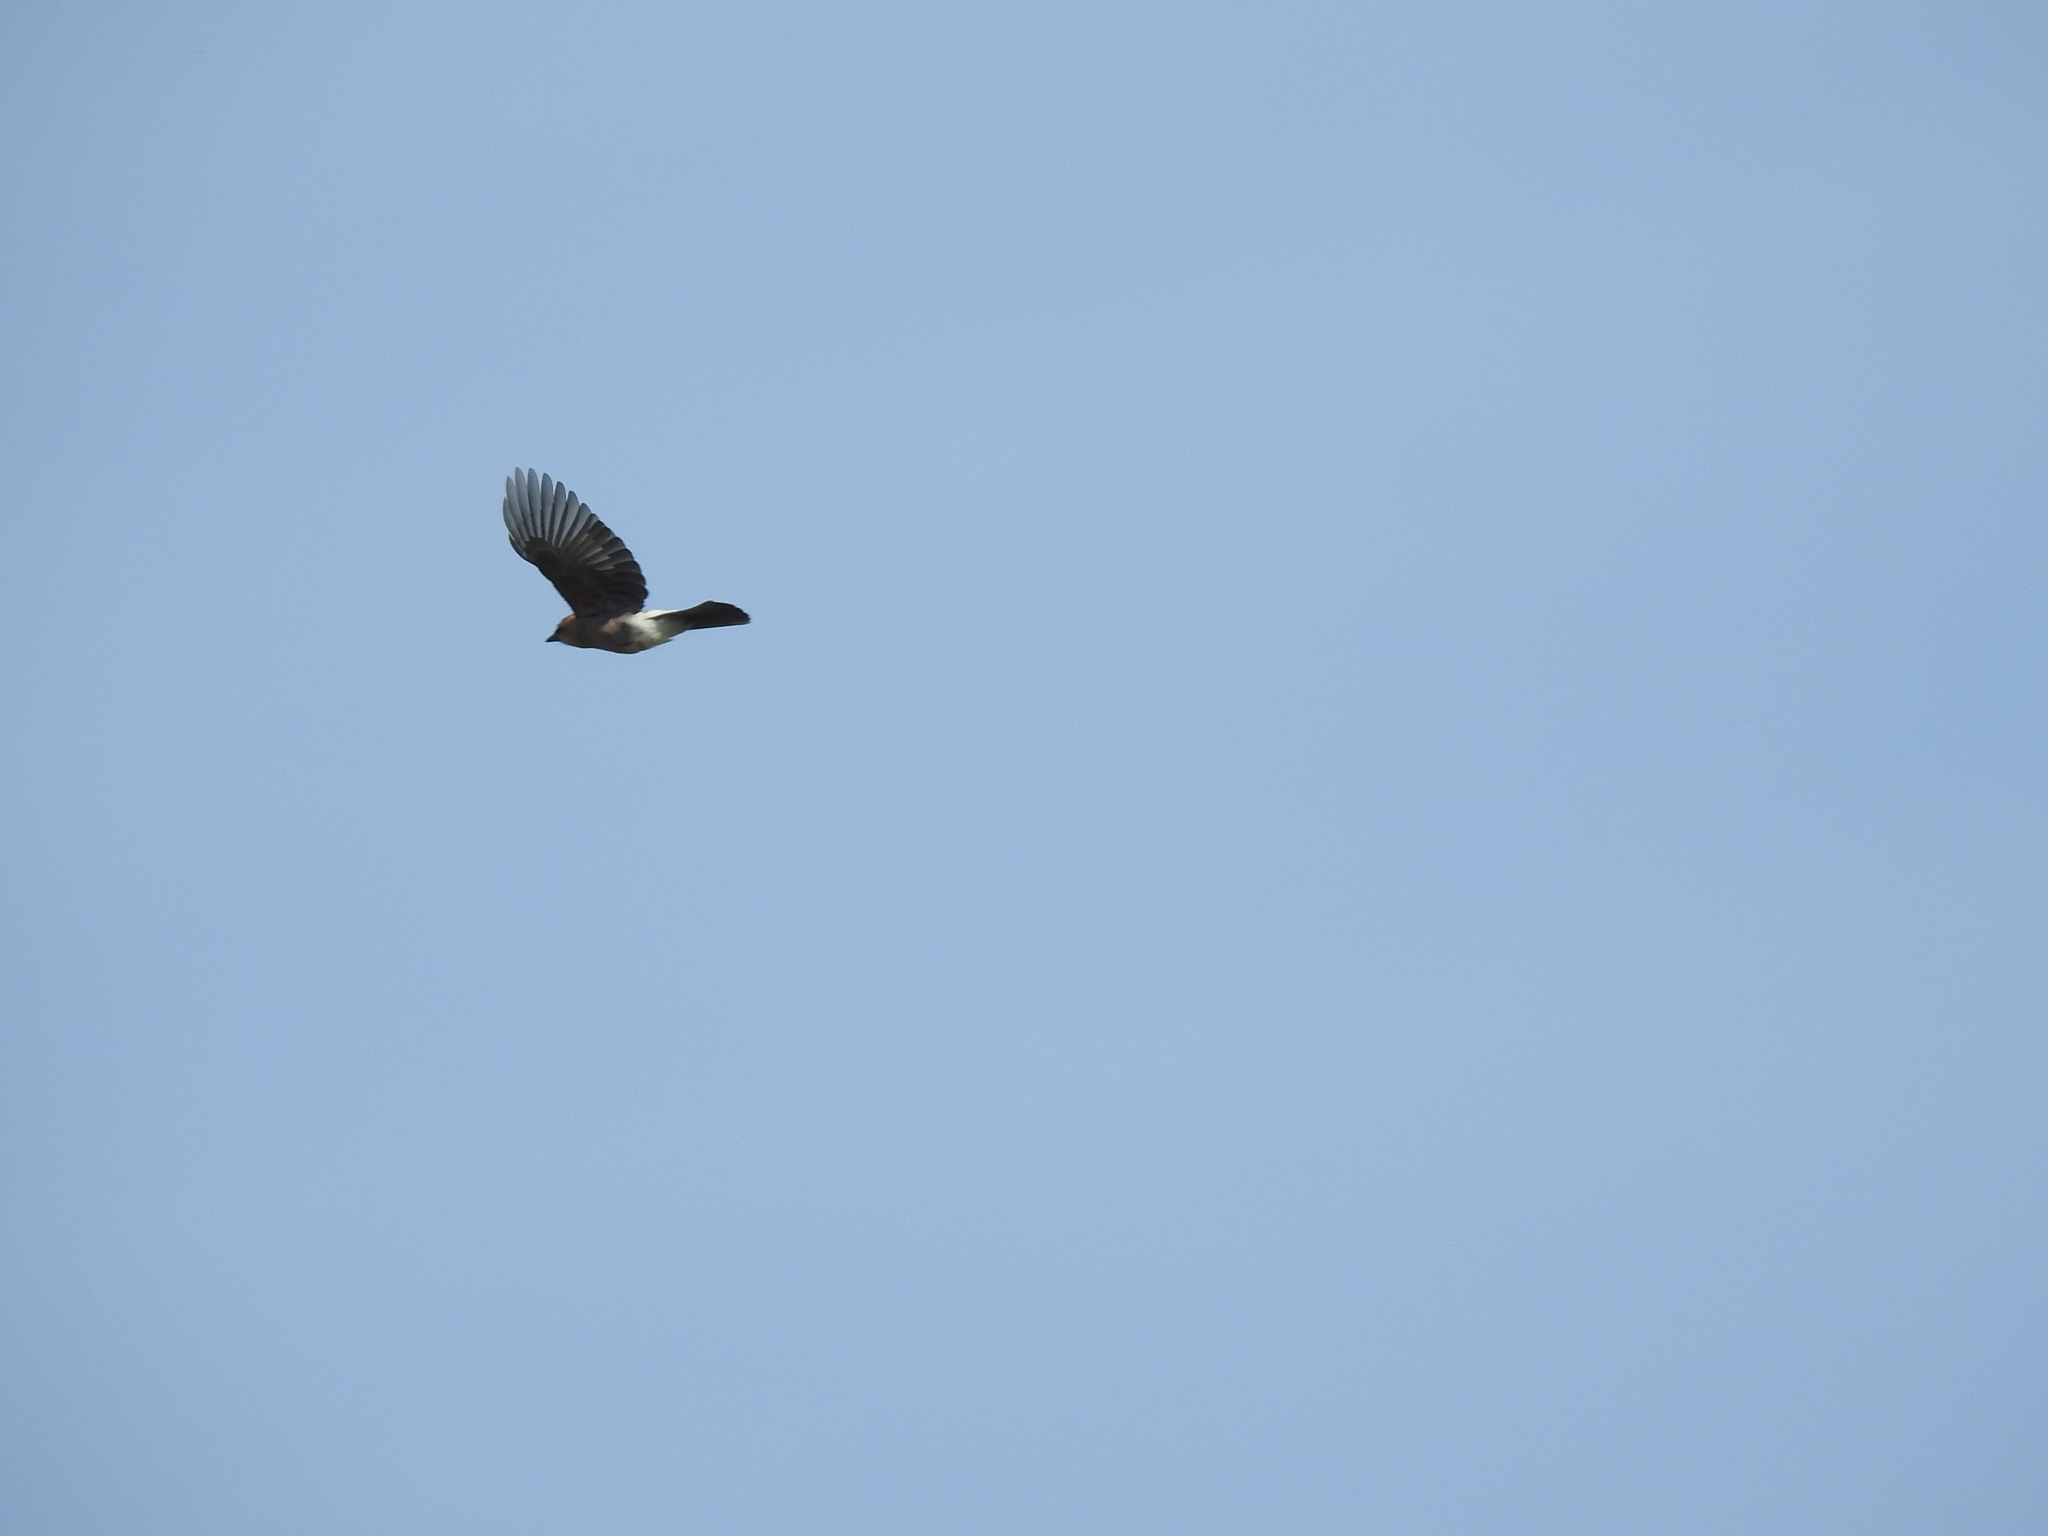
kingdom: Animalia
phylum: Chordata
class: Aves
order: Passeriformes
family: Corvidae
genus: Garrulus
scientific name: Garrulus glandarius
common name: Eurasian jay
